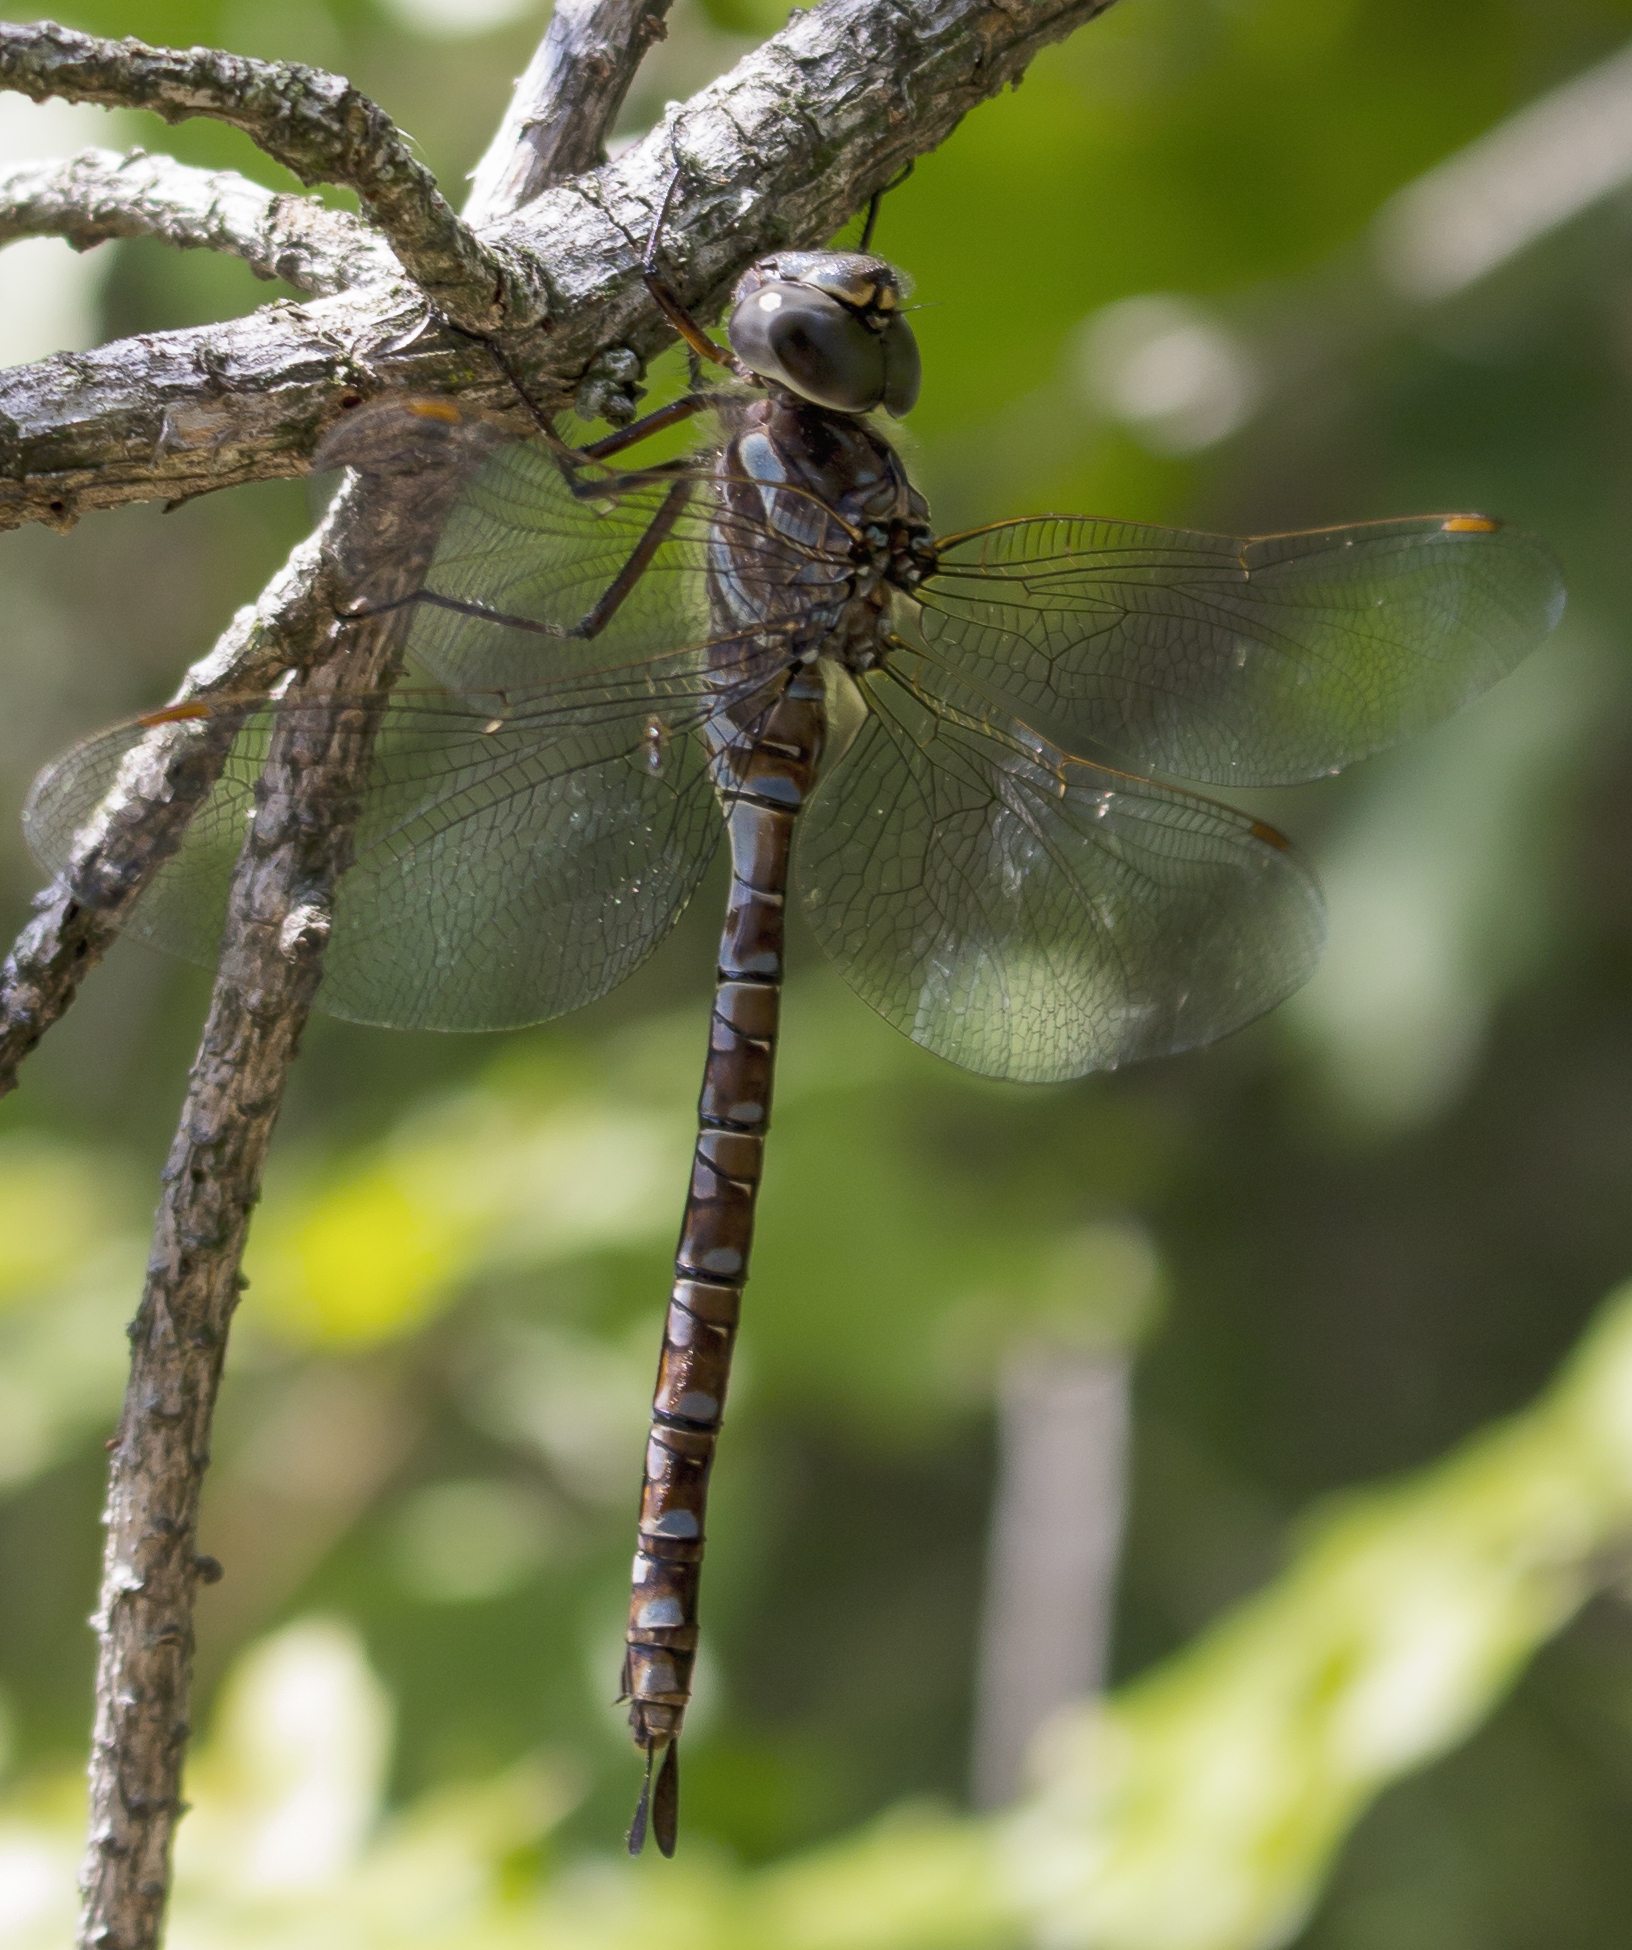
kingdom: Animalia
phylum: Arthropoda
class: Insecta
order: Odonata
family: Aeshnidae
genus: Aeshna
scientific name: Aeshna canadensis
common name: Canada darner
